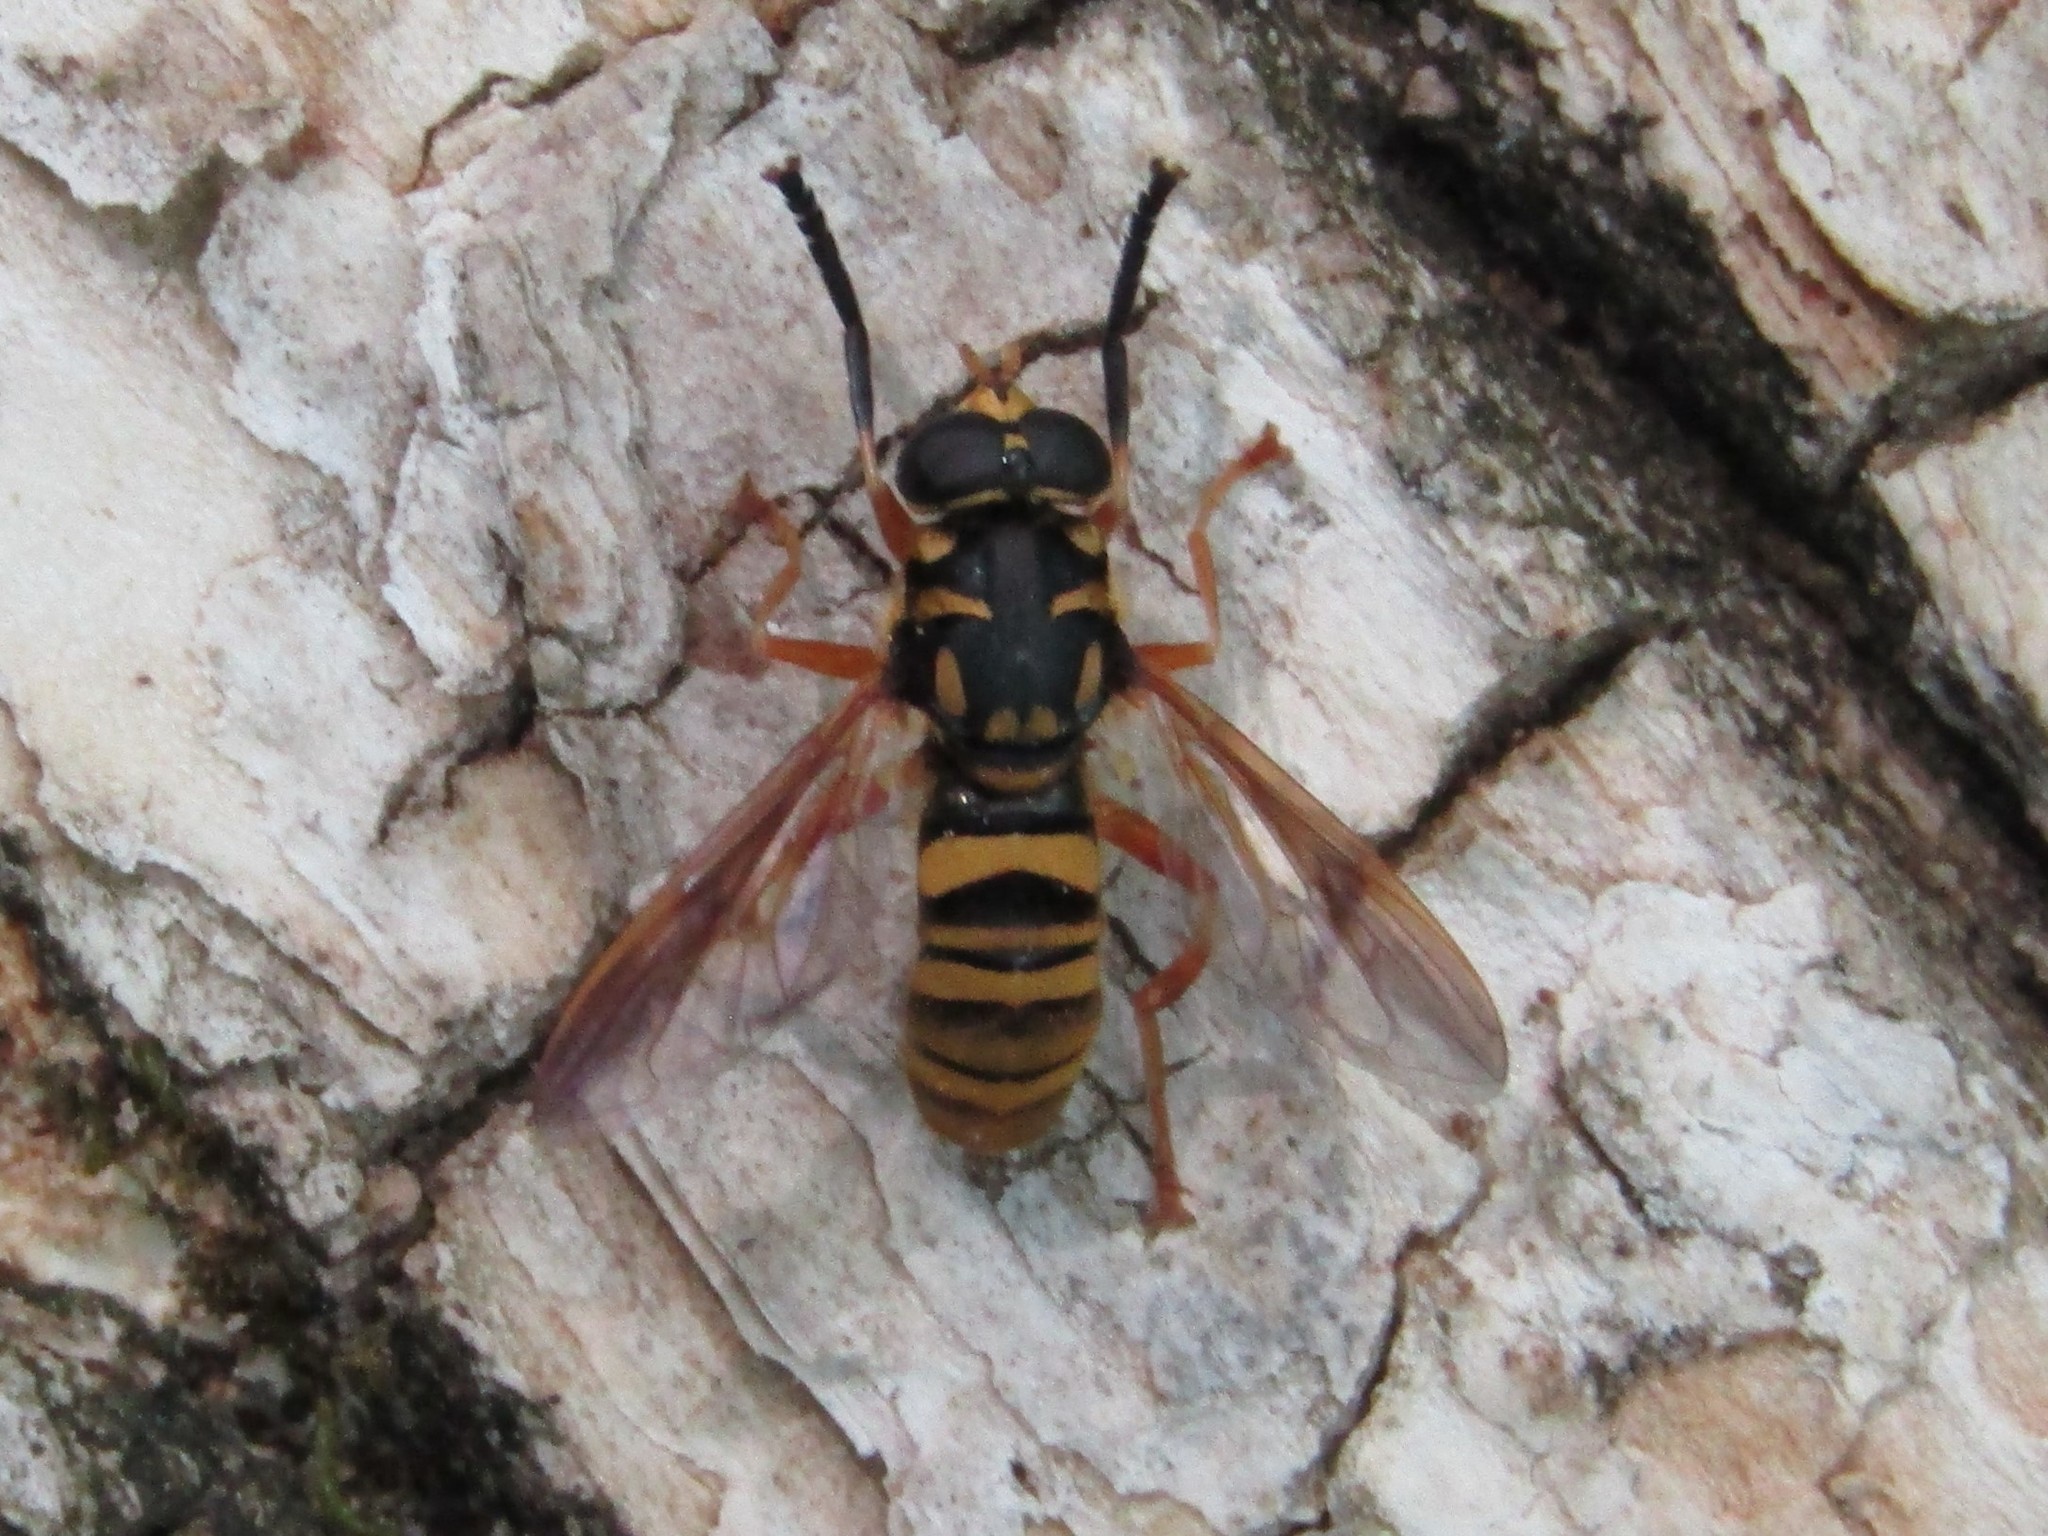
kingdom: Animalia
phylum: Arthropoda
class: Insecta
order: Diptera
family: Syrphidae
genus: Temnostoma
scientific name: Temnostoma daochum
